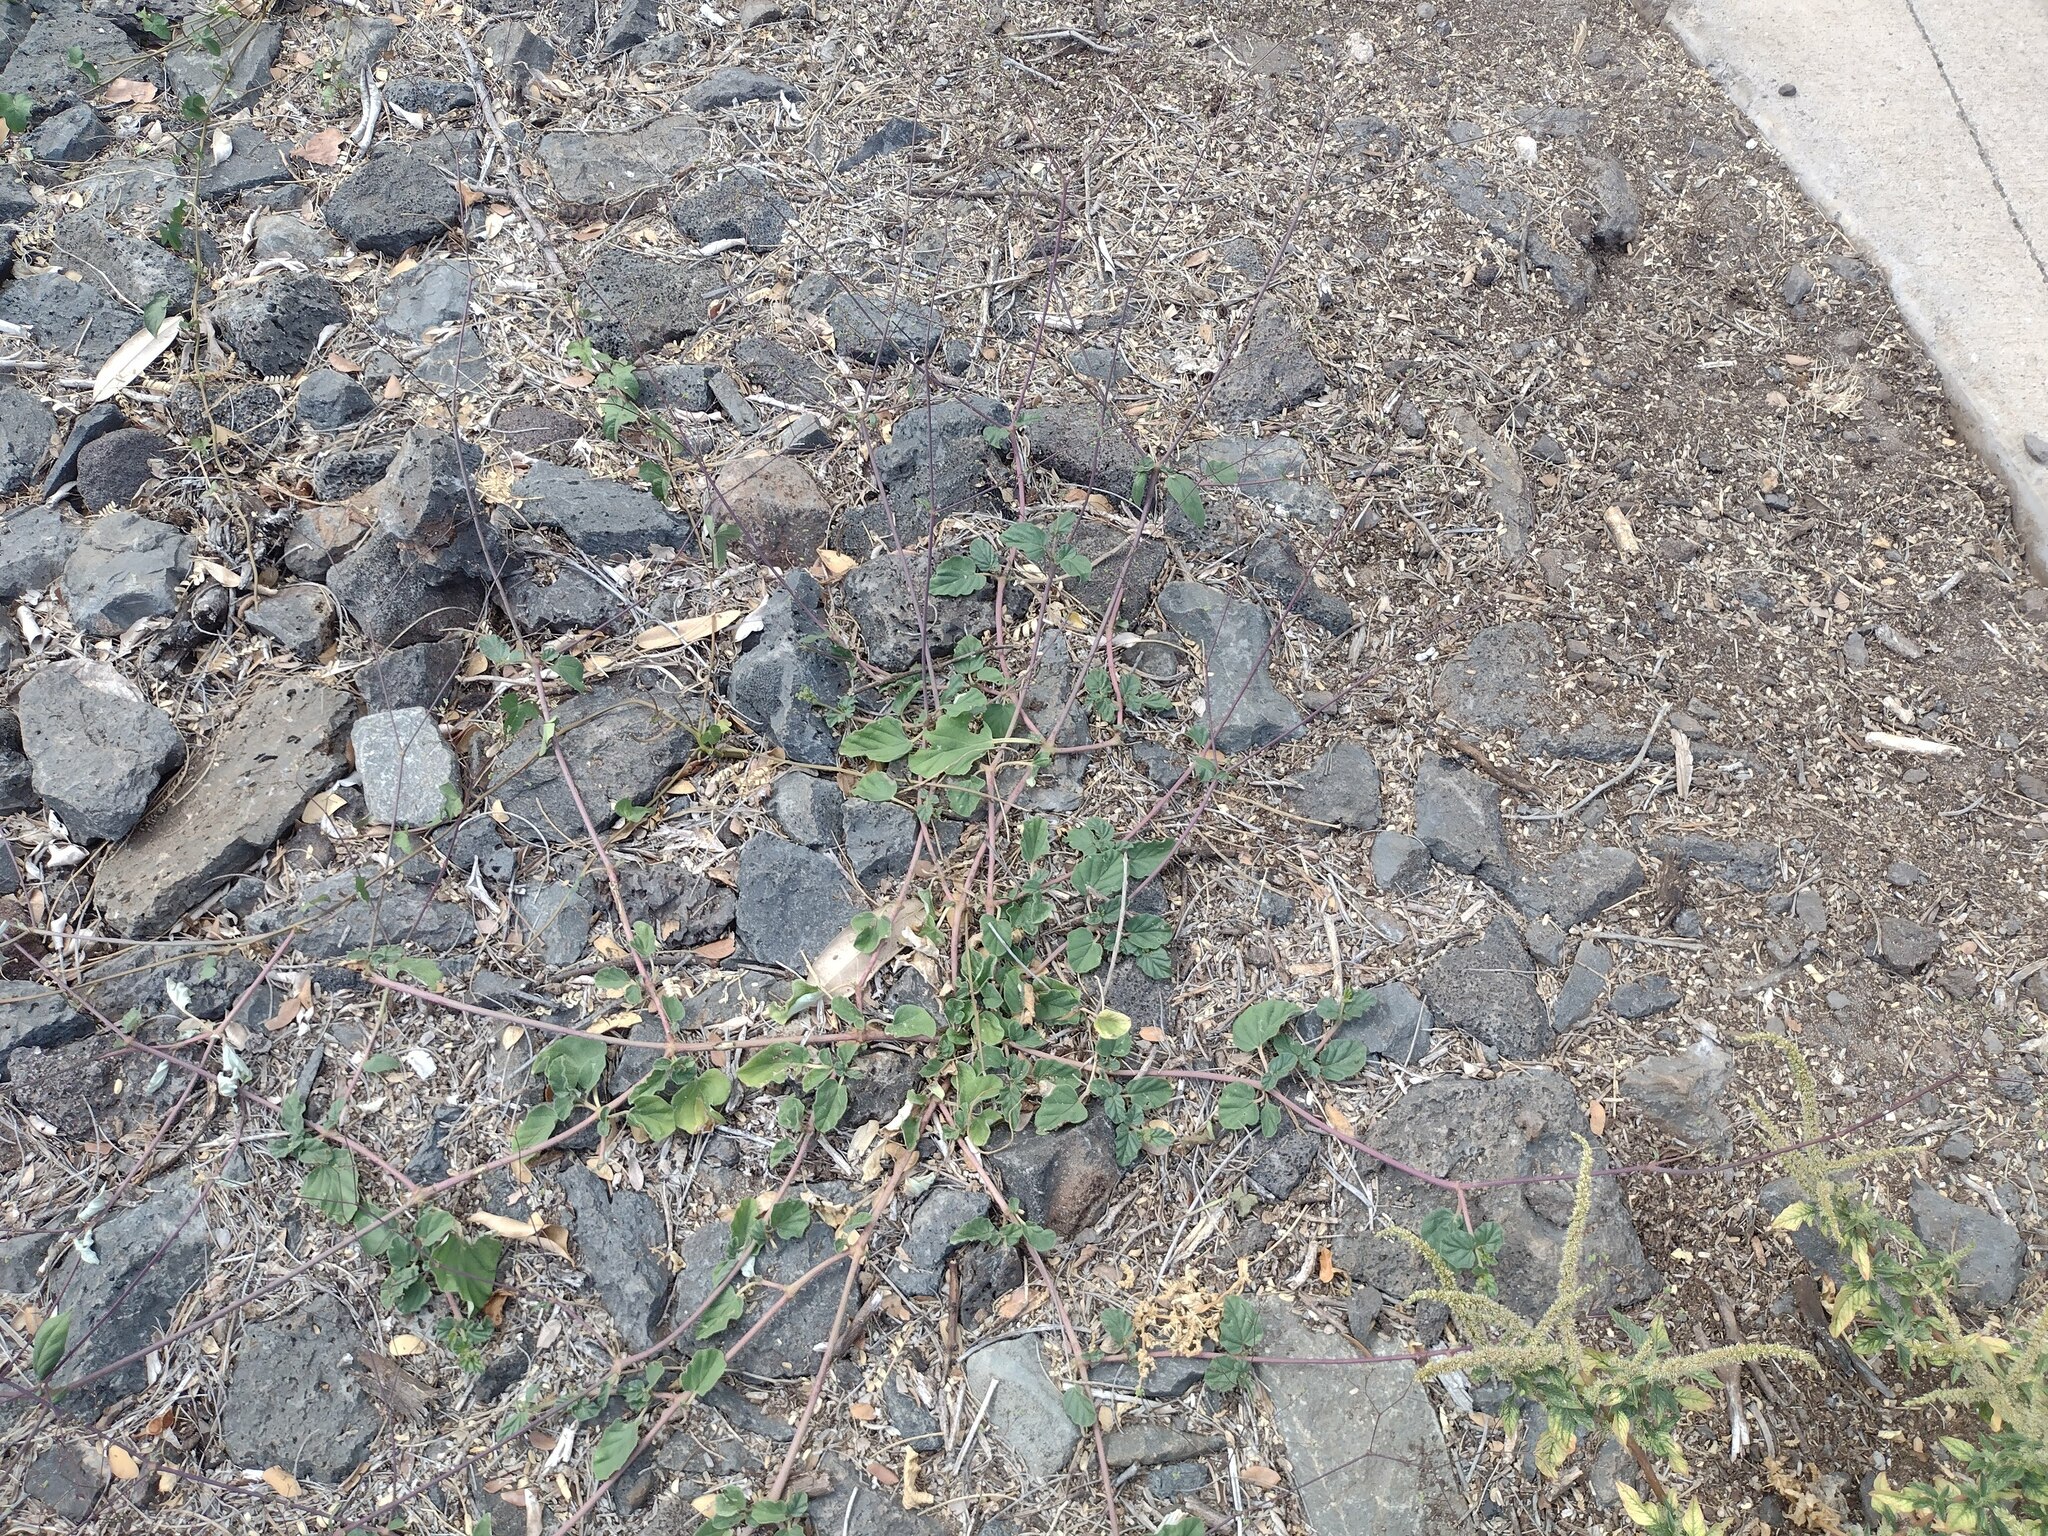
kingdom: Plantae
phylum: Tracheophyta
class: Magnoliopsida
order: Caryophyllales
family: Nyctaginaceae
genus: Boerhavia
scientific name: Boerhavia diffusa
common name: Red spiderling
